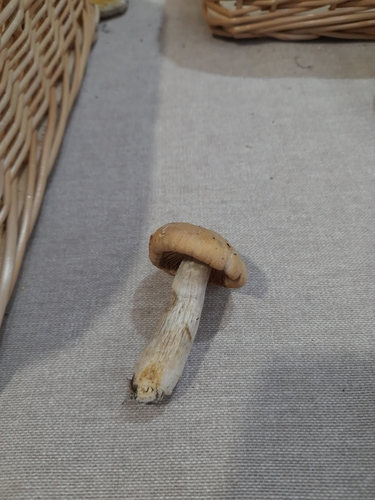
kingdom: Fungi
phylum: Basidiomycota
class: Agaricomycetes
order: Agaricales
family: Cortinariaceae
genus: Cortinarius
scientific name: Cortinarius caperatus
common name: The gypsy
